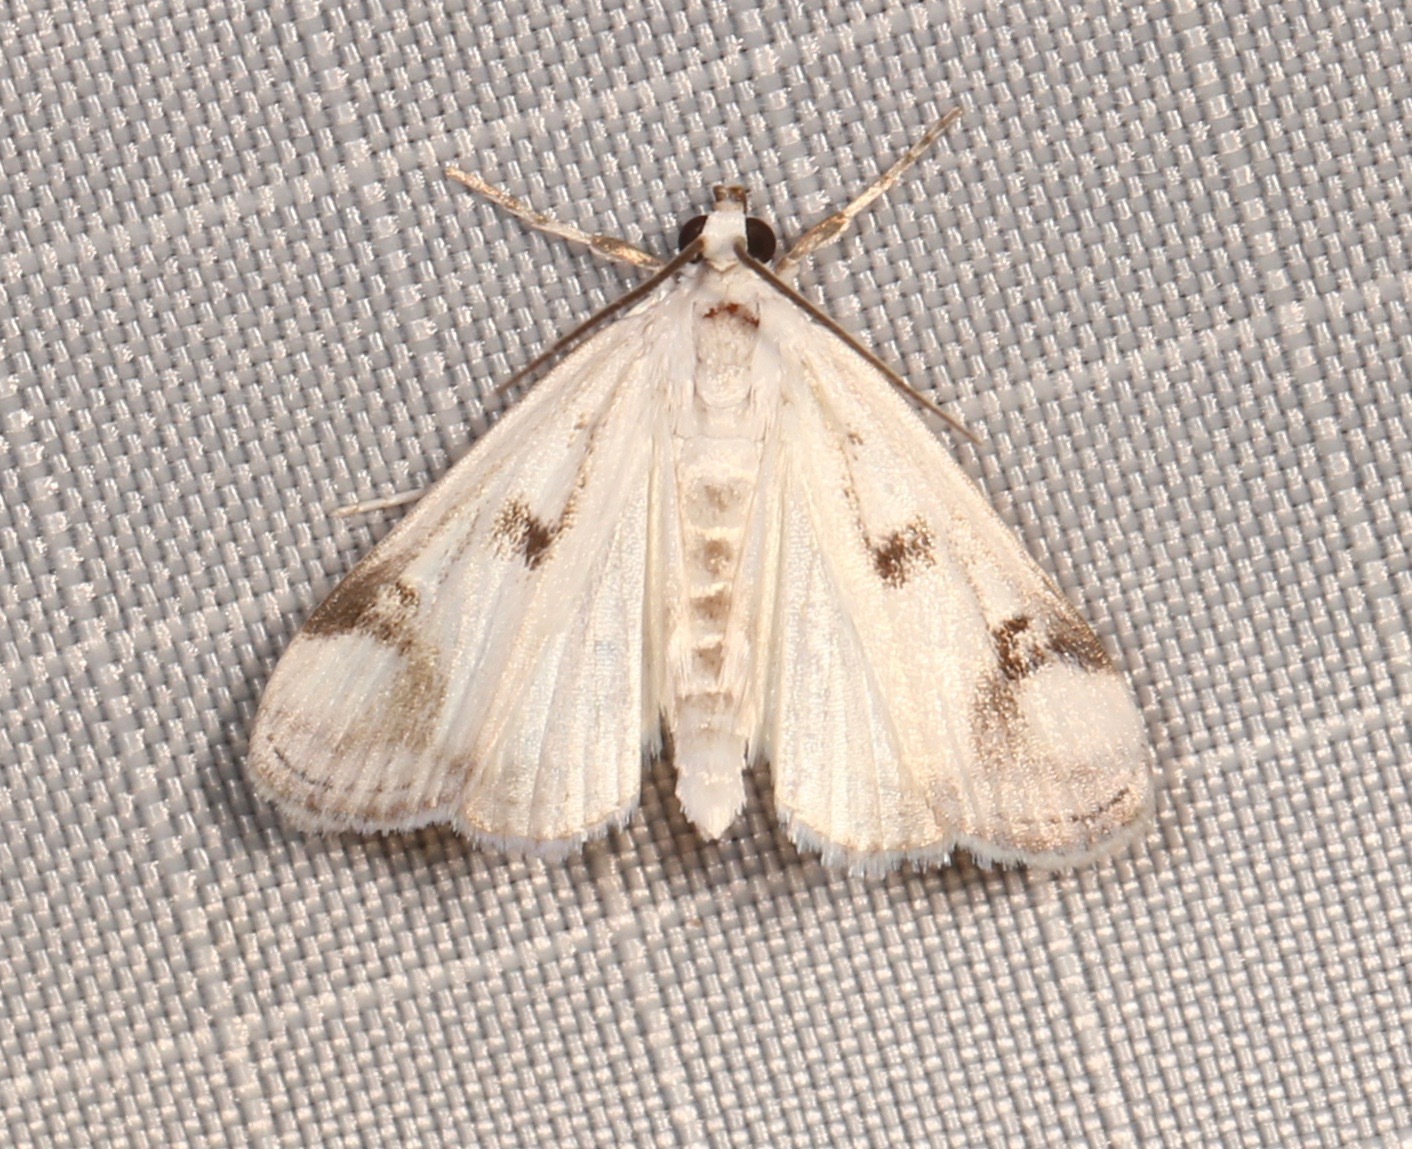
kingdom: Animalia
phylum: Arthropoda
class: Insecta
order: Lepidoptera
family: Crambidae
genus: Parapoynx
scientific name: Parapoynx maculalis
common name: Polymorphic pondweed moth
